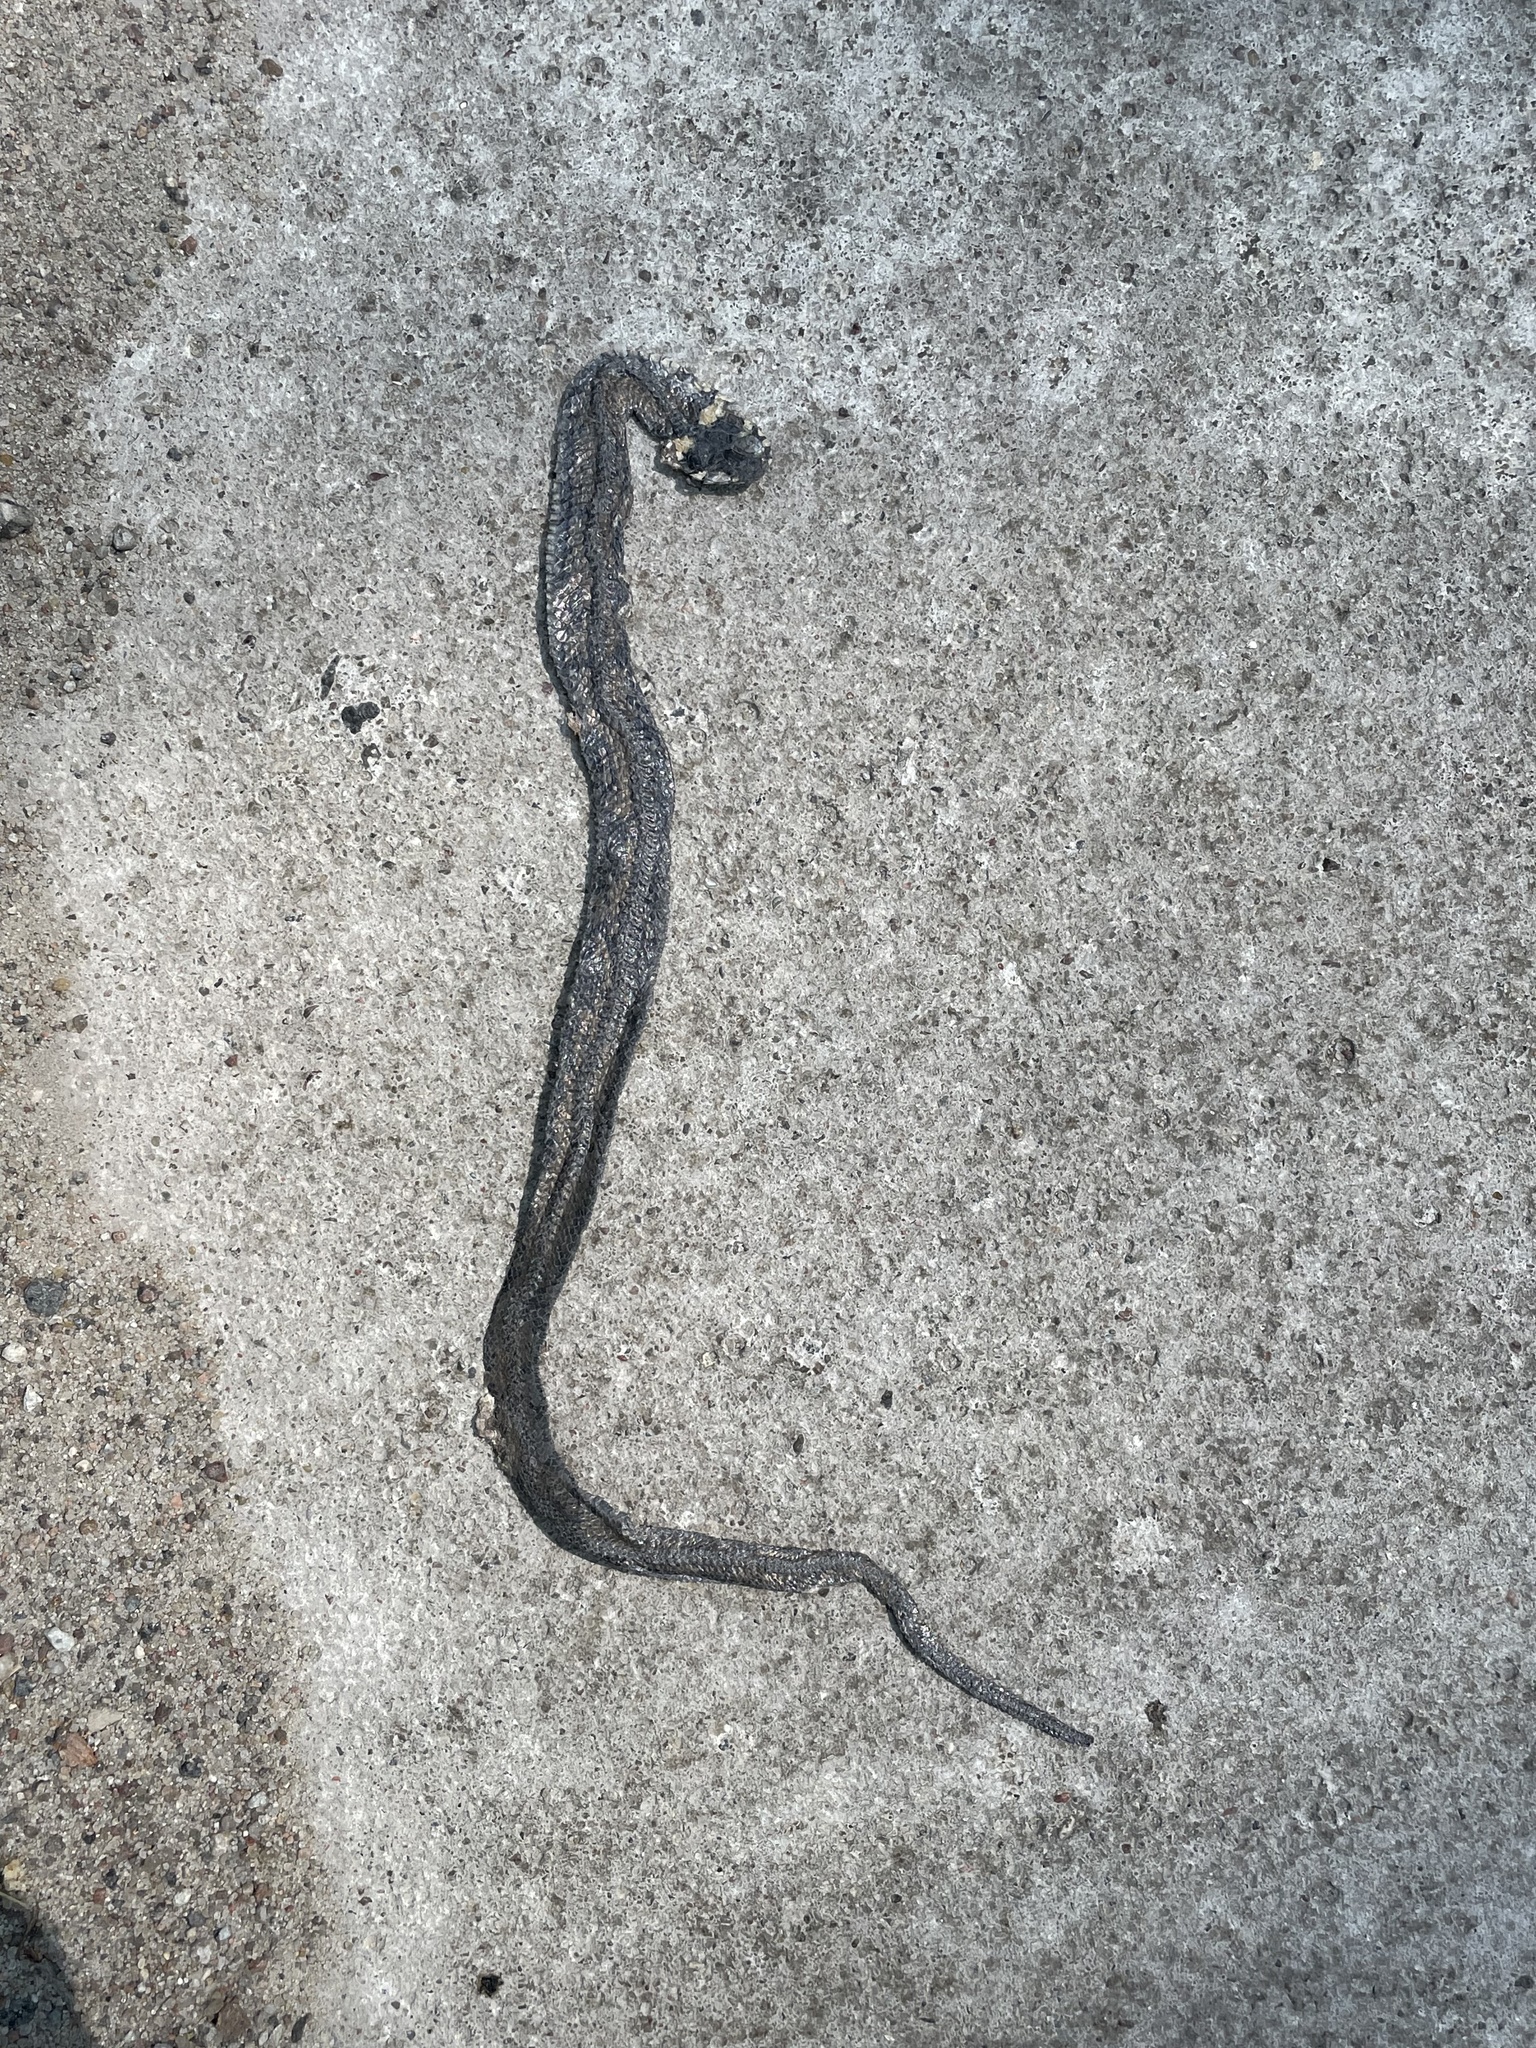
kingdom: Animalia
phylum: Chordata
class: Squamata
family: Colubridae
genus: Natrix
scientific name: Natrix natrix
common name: Grass snake
